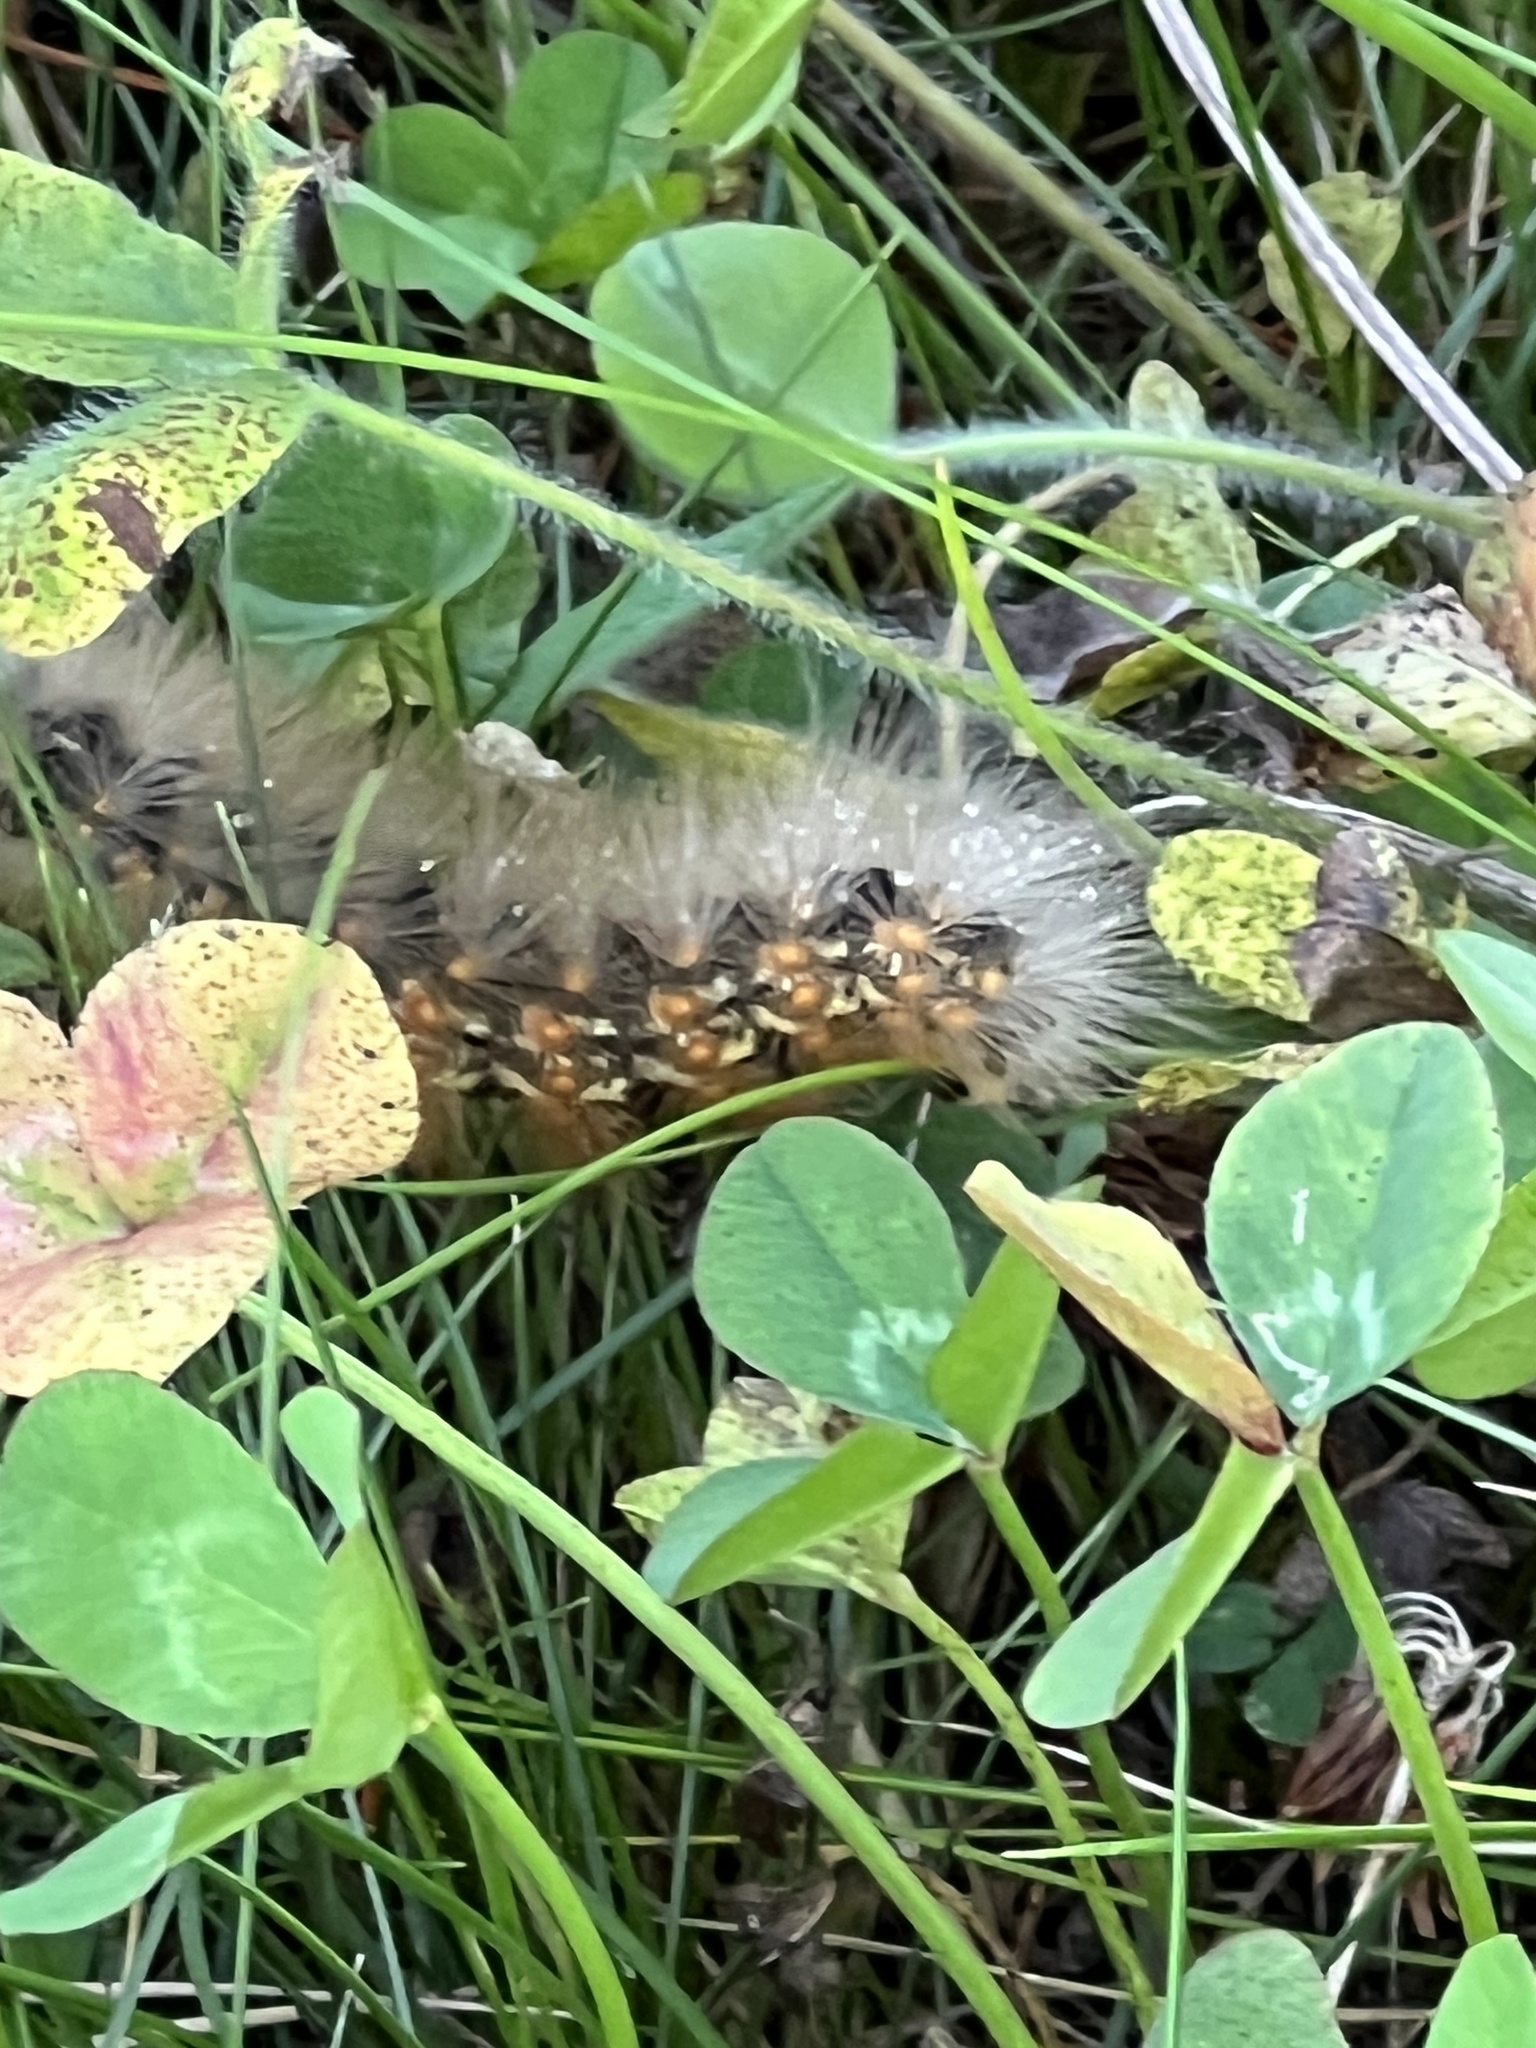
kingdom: Animalia
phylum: Arthropoda
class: Insecta
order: Lepidoptera
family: Erebidae
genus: Estigmene
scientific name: Estigmene acrea
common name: Salt marsh moth
